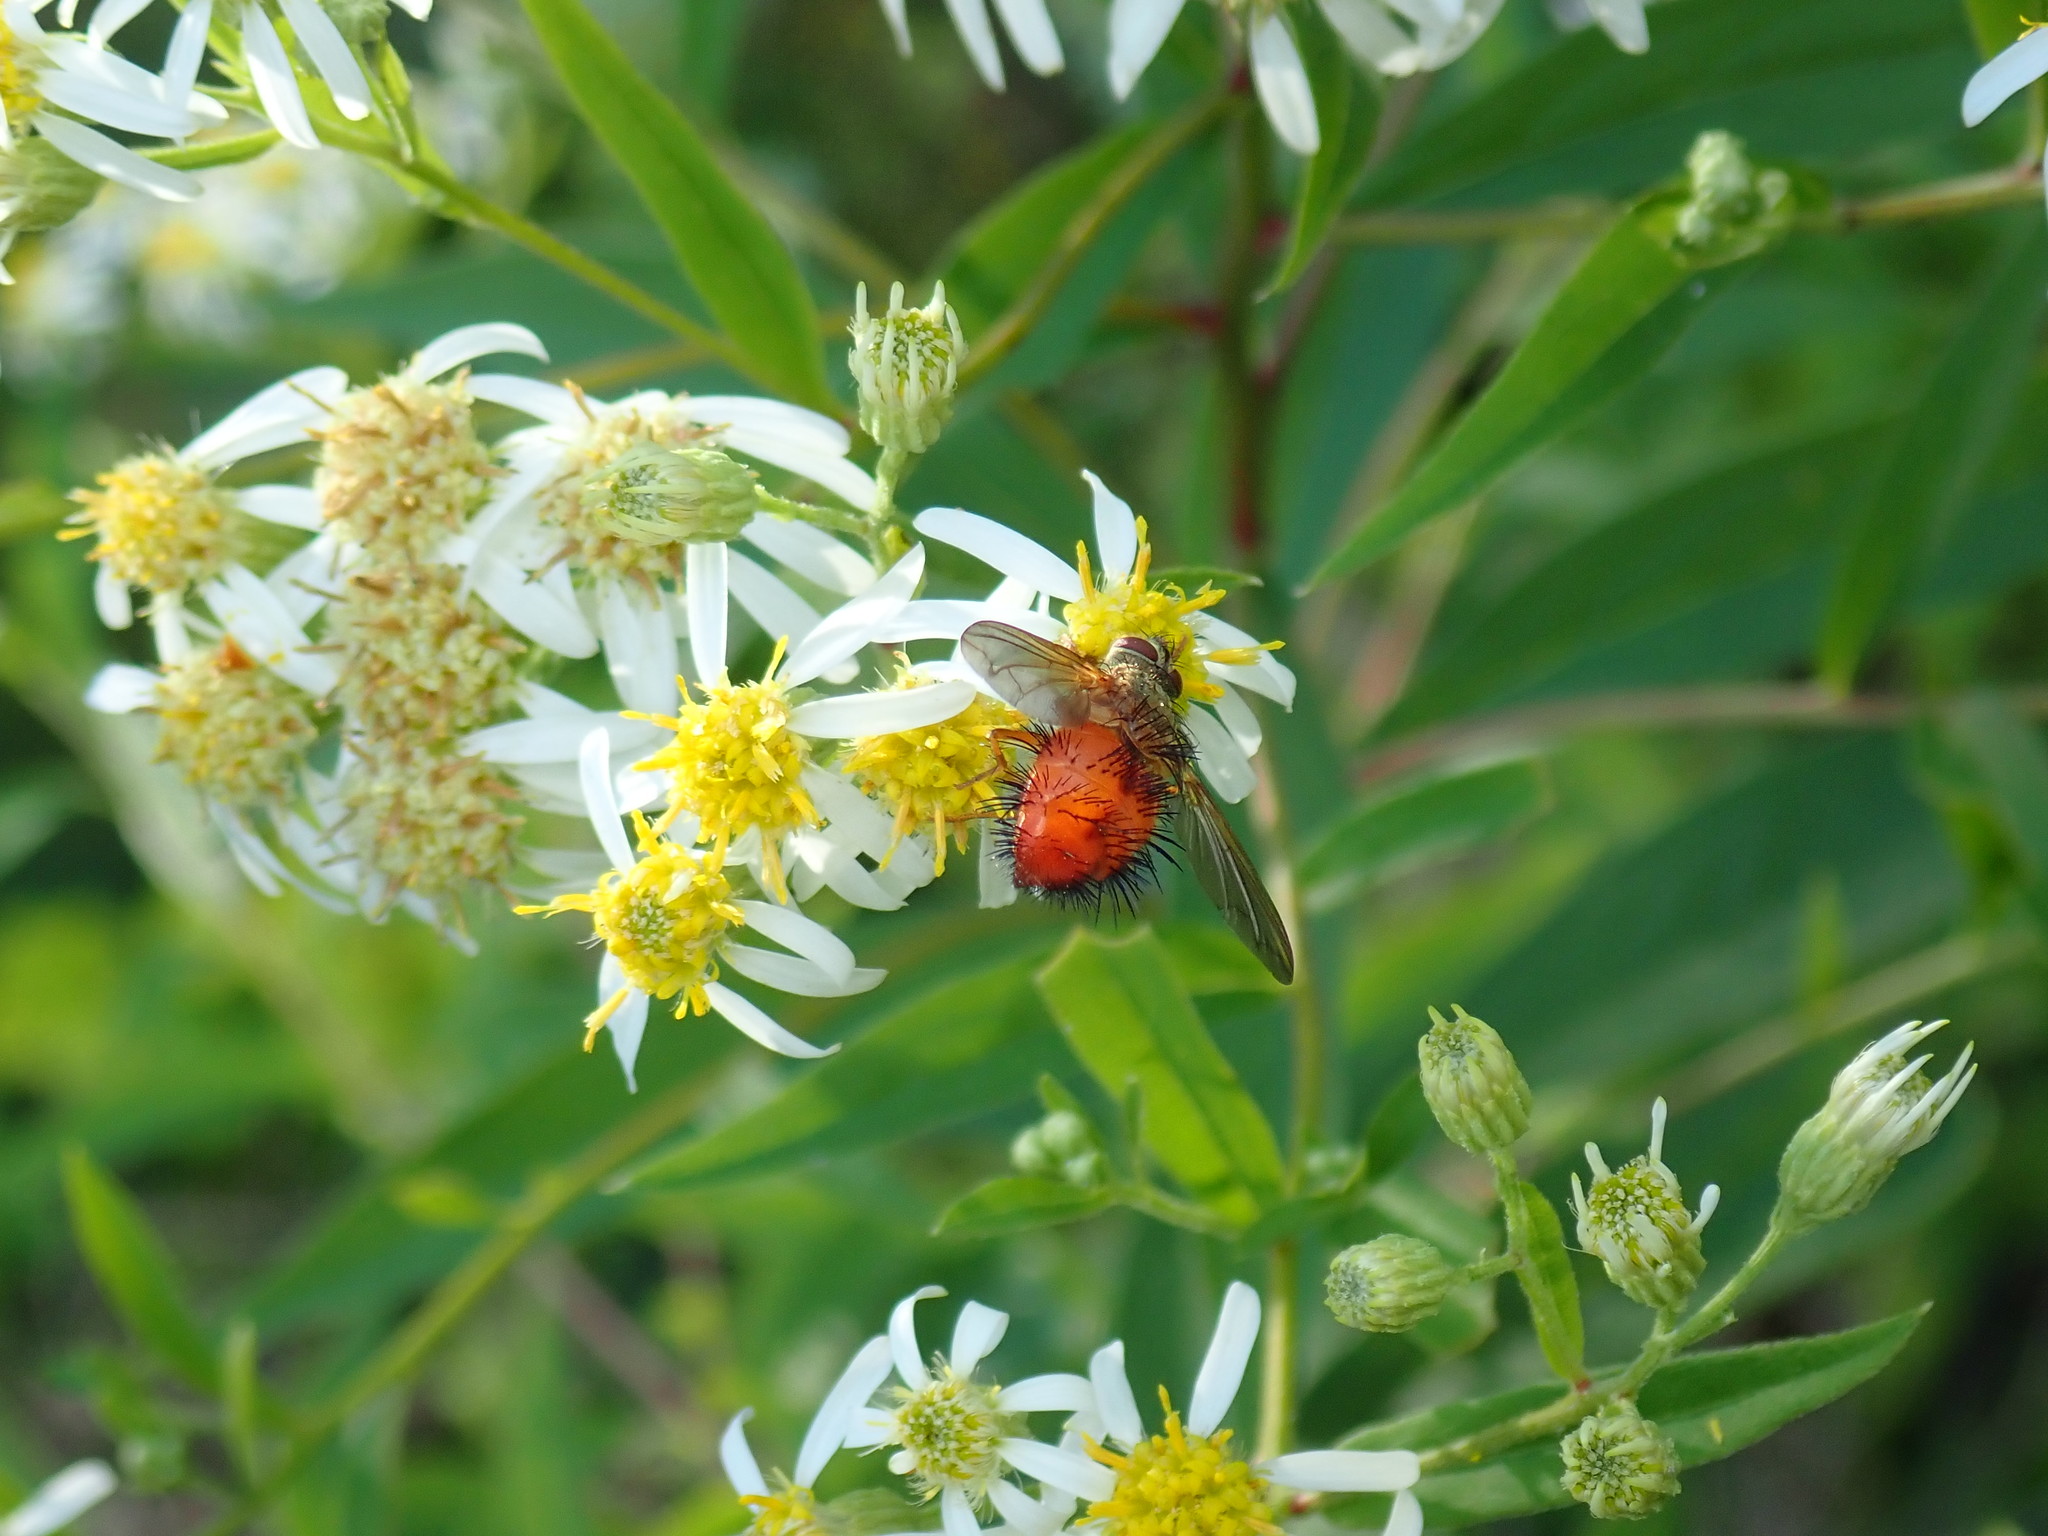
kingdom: Animalia
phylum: Arthropoda
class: Insecta
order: Diptera
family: Tachinidae
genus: Hystricia
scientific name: Hystricia abrupta
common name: Tomato bristle fly
